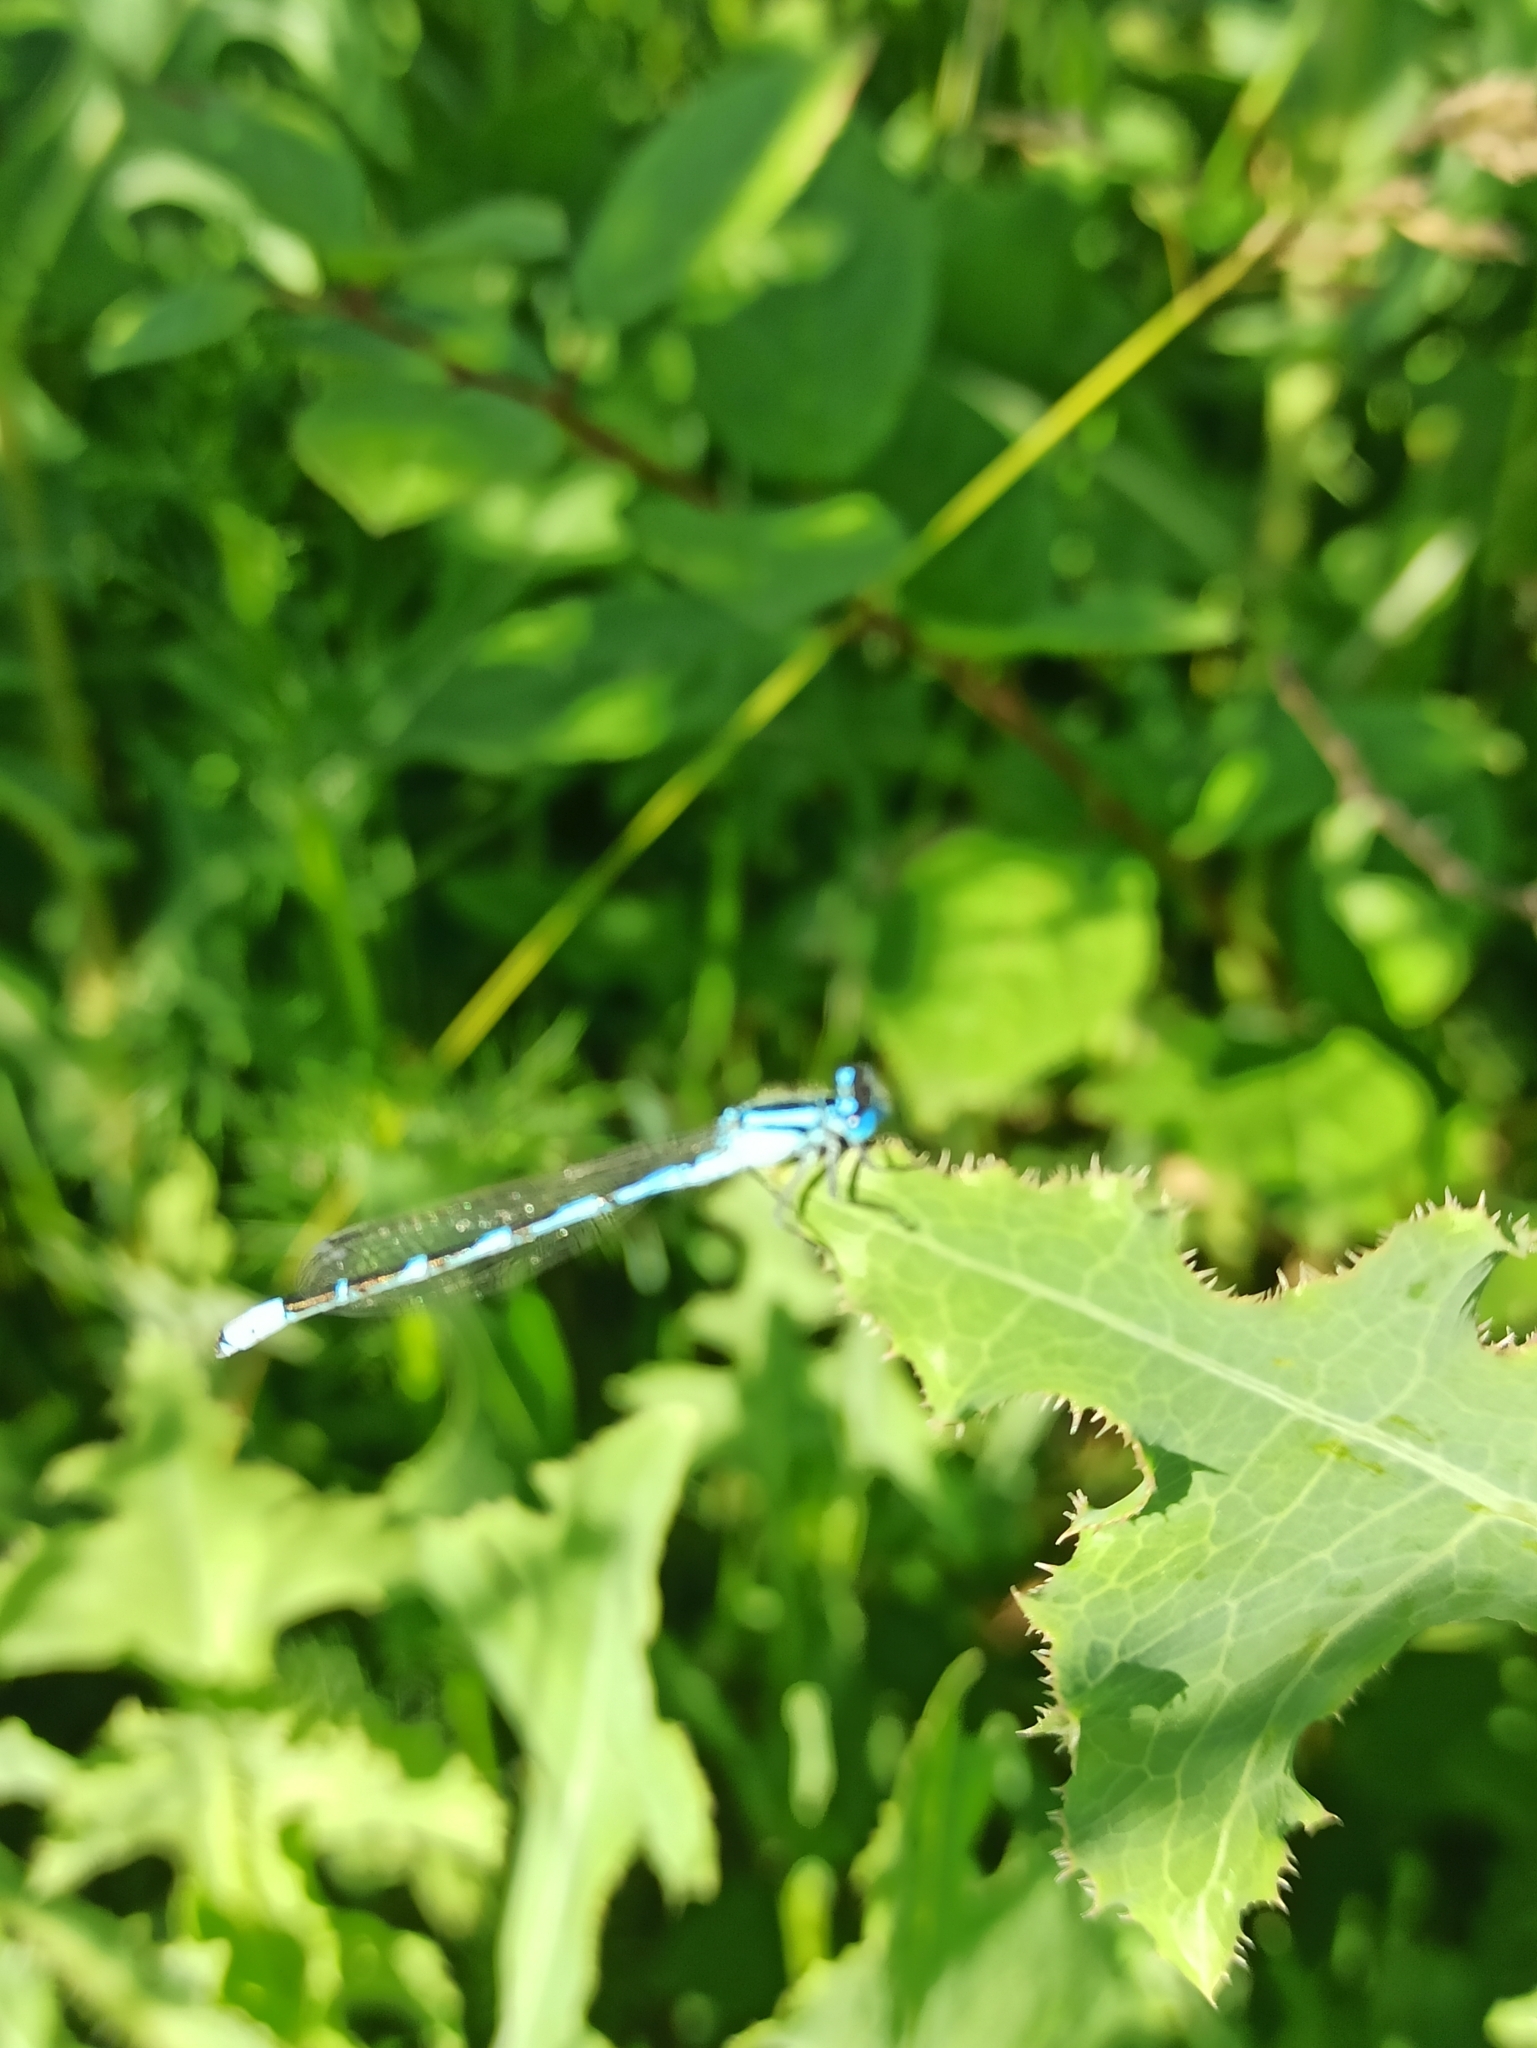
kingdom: Animalia
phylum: Arthropoda
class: Insecta
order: Odonata
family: Coenagrionidae
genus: Enallagma
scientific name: Enallagma cyathigerum
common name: Common blue damselfly
